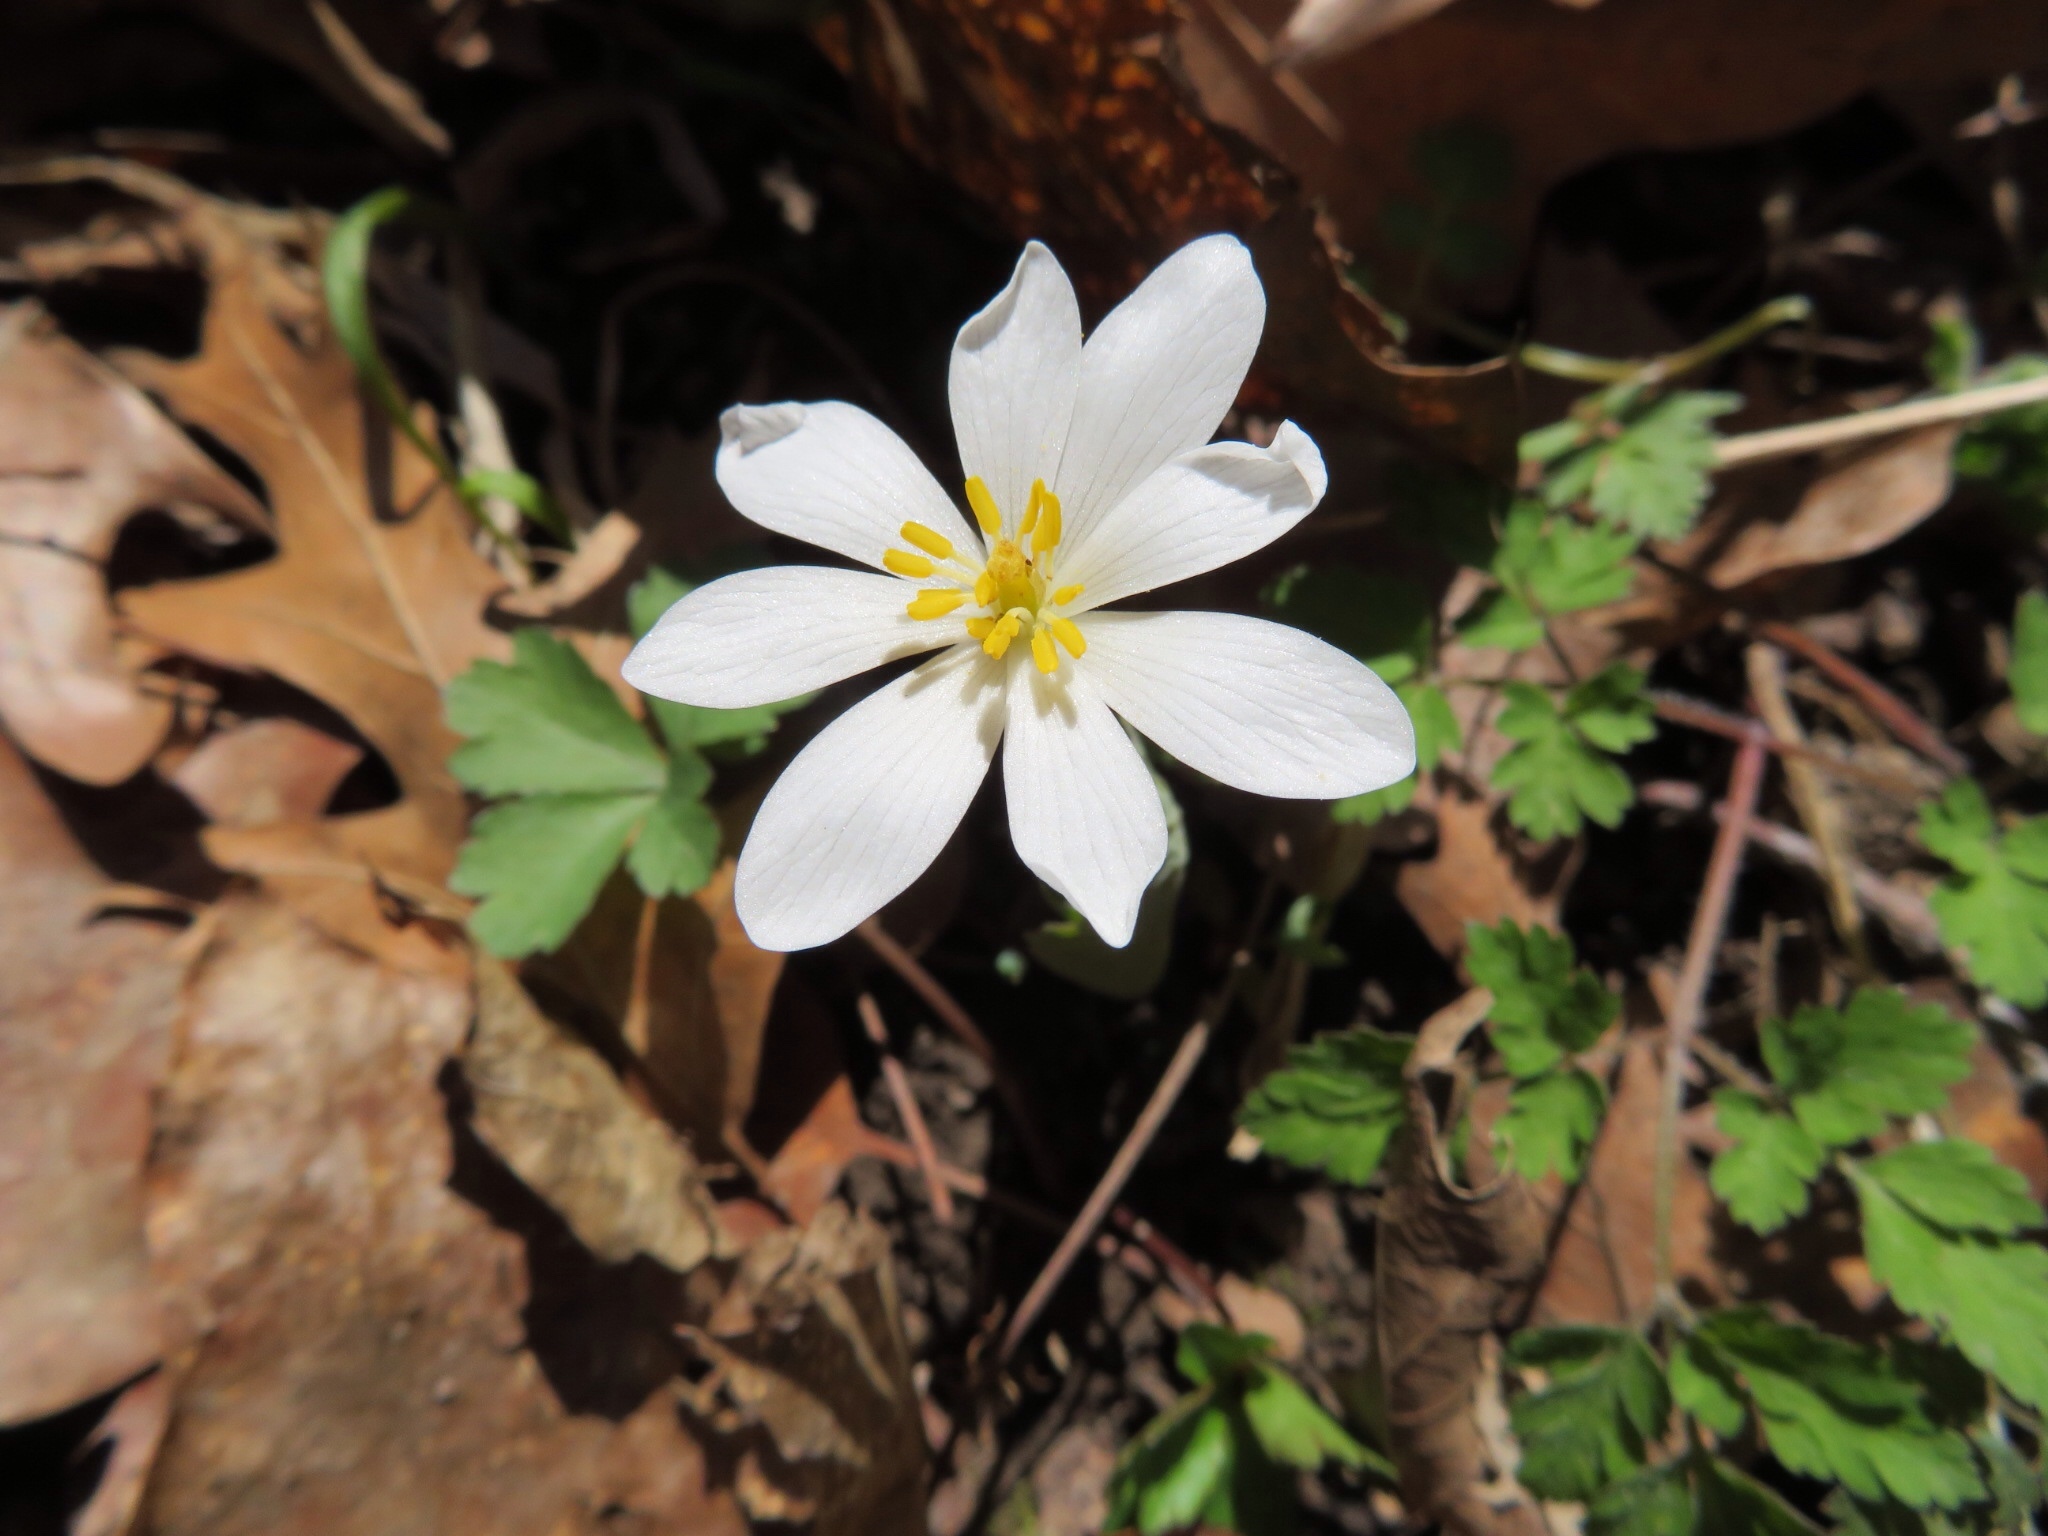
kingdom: Plantae
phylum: Tracheophyta
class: Magnoliopsida
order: Ranunculales
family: Papaveraceae
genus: Sanguinaria
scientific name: Sanguinaria canadensis
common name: Bloodroot
